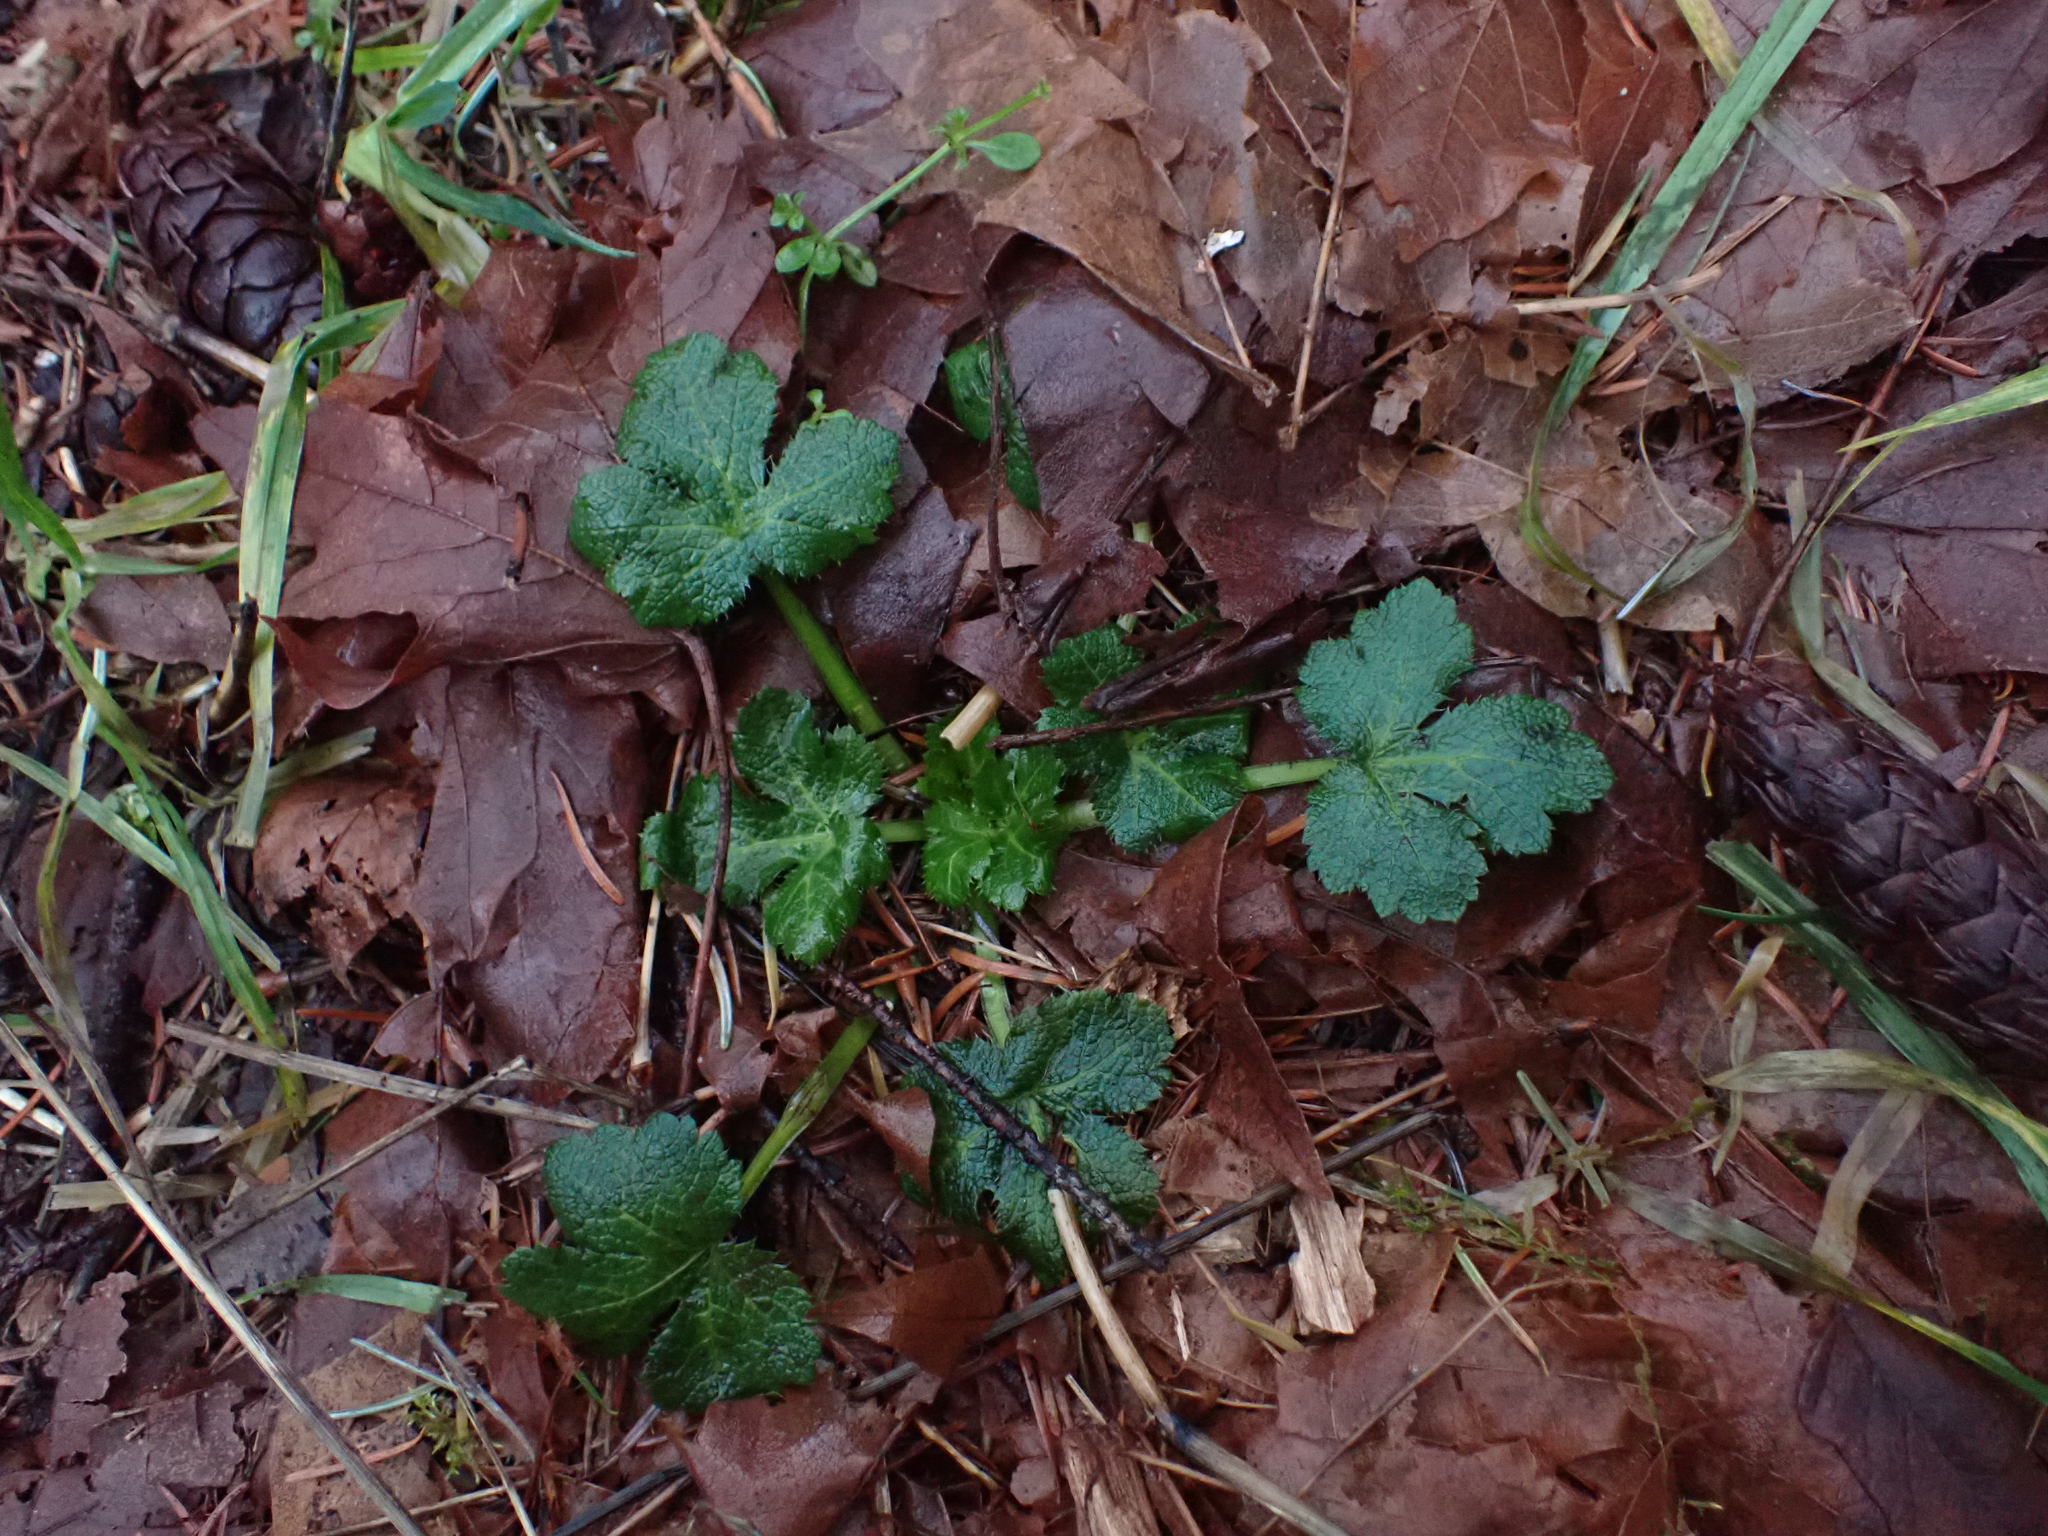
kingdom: Plantae
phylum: Tracheophyta
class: Magnoliopsida
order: Apiales
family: Apiaceae
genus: Sanicula
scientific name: Sanicula crassicaulis
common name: Western snakeroot
